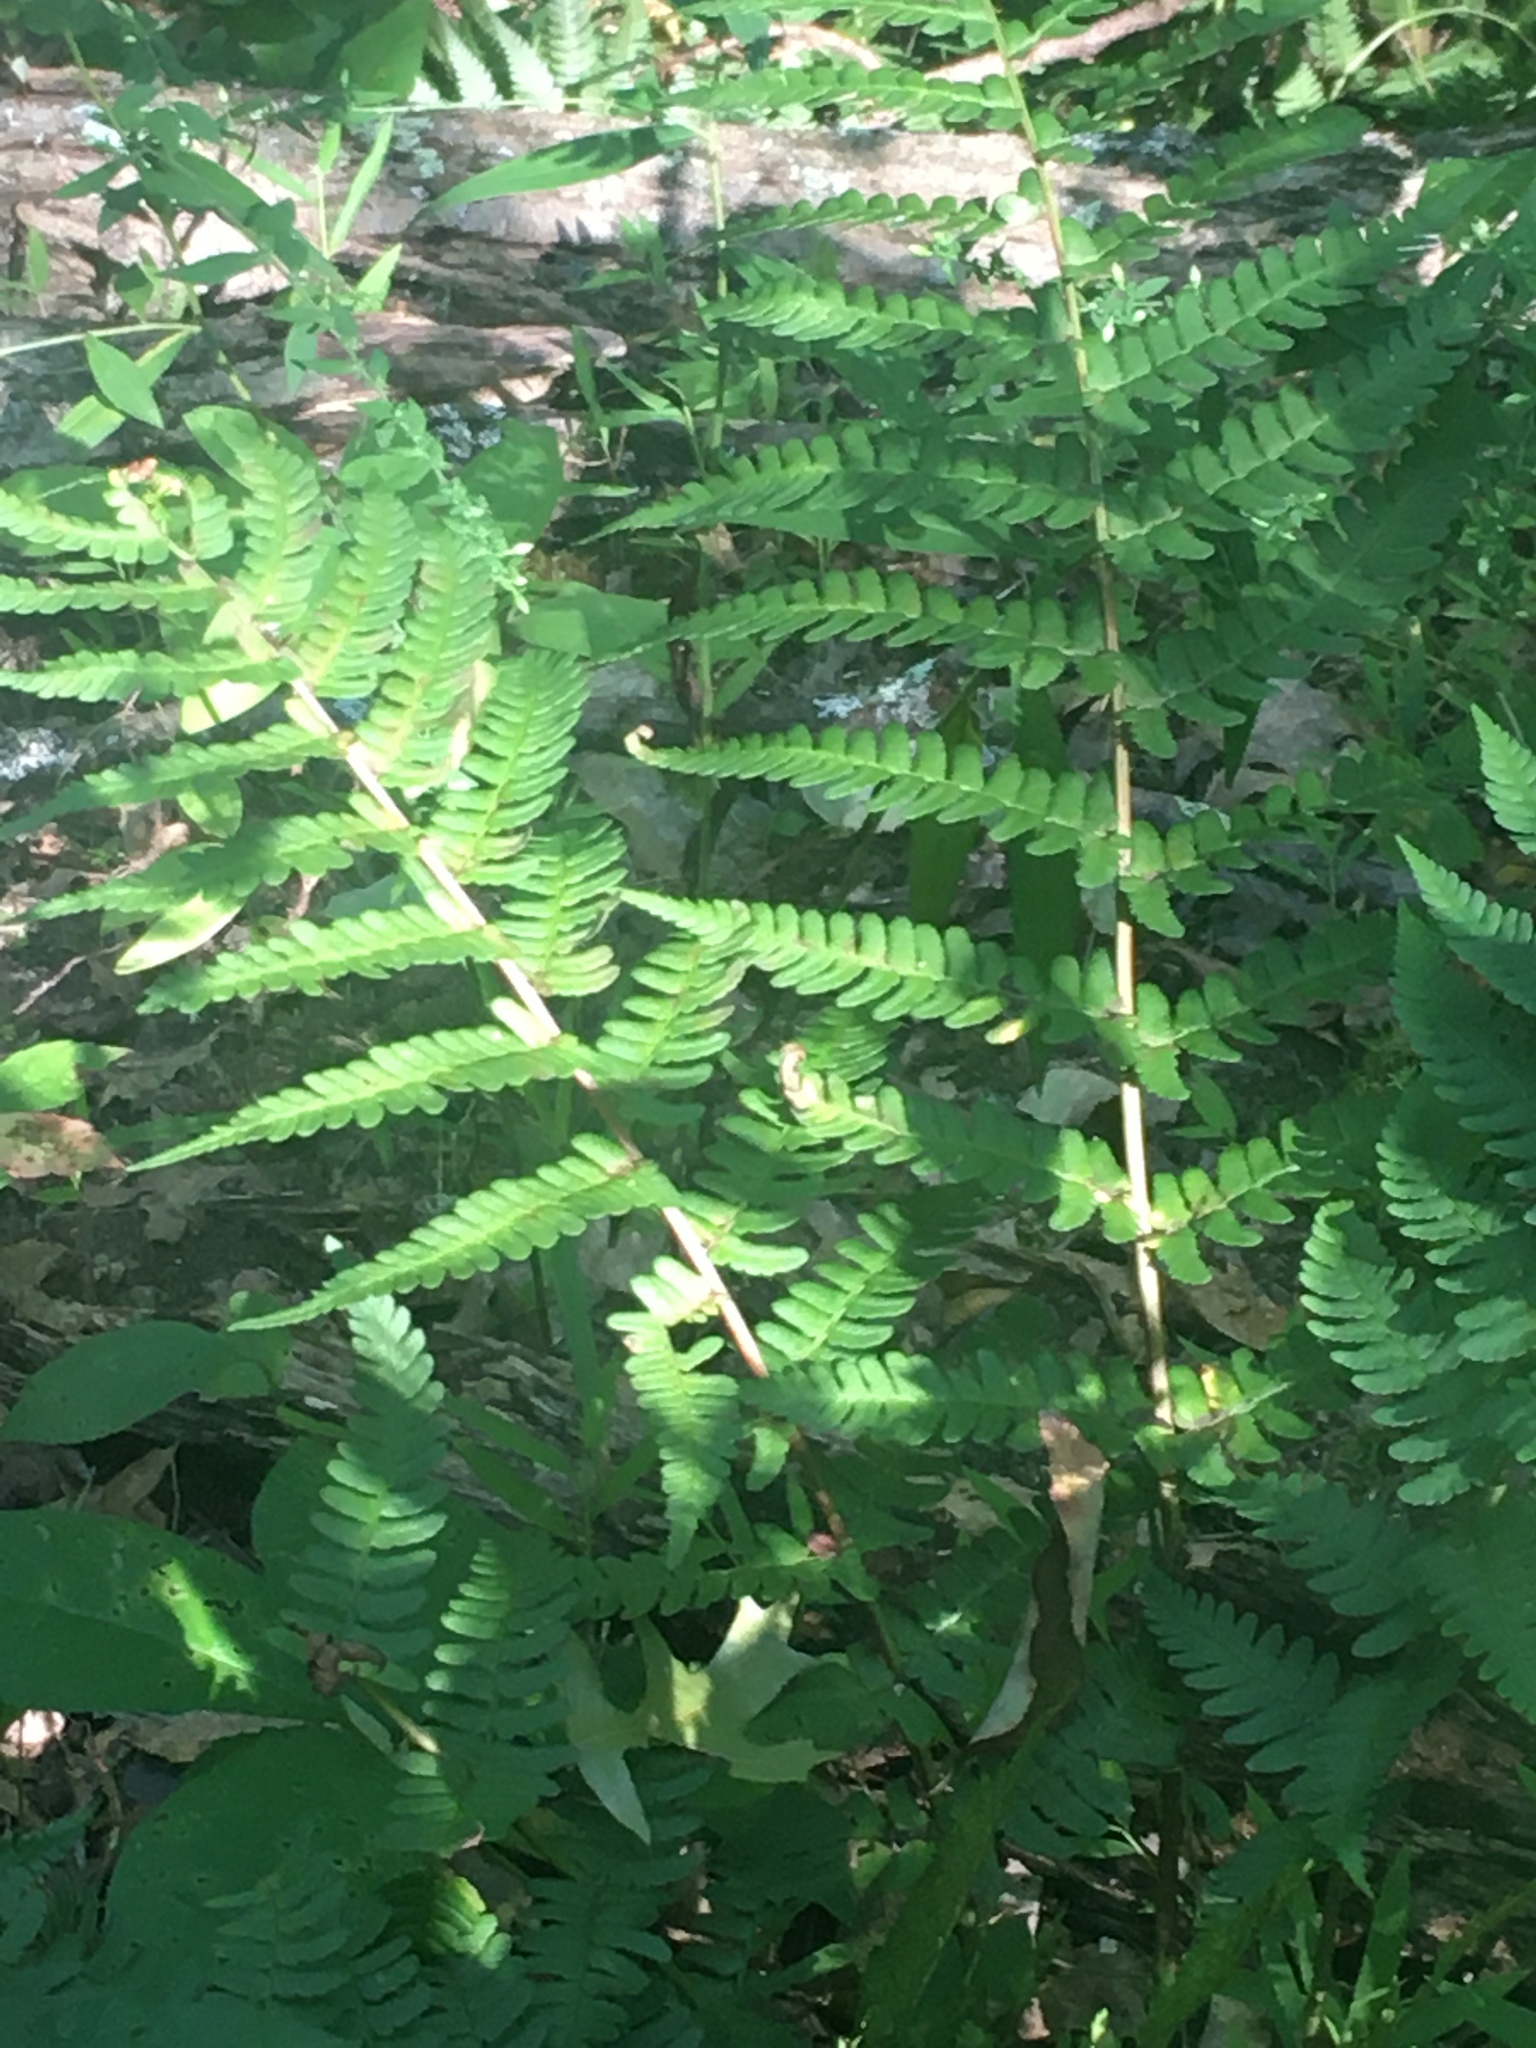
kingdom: Plantae
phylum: Tracheophyta
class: Polypodiopsida
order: Polypodiales
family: Dryopteridaceae
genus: Dryopteris
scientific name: Dryopteris marginalis
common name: Marginal wood fern
